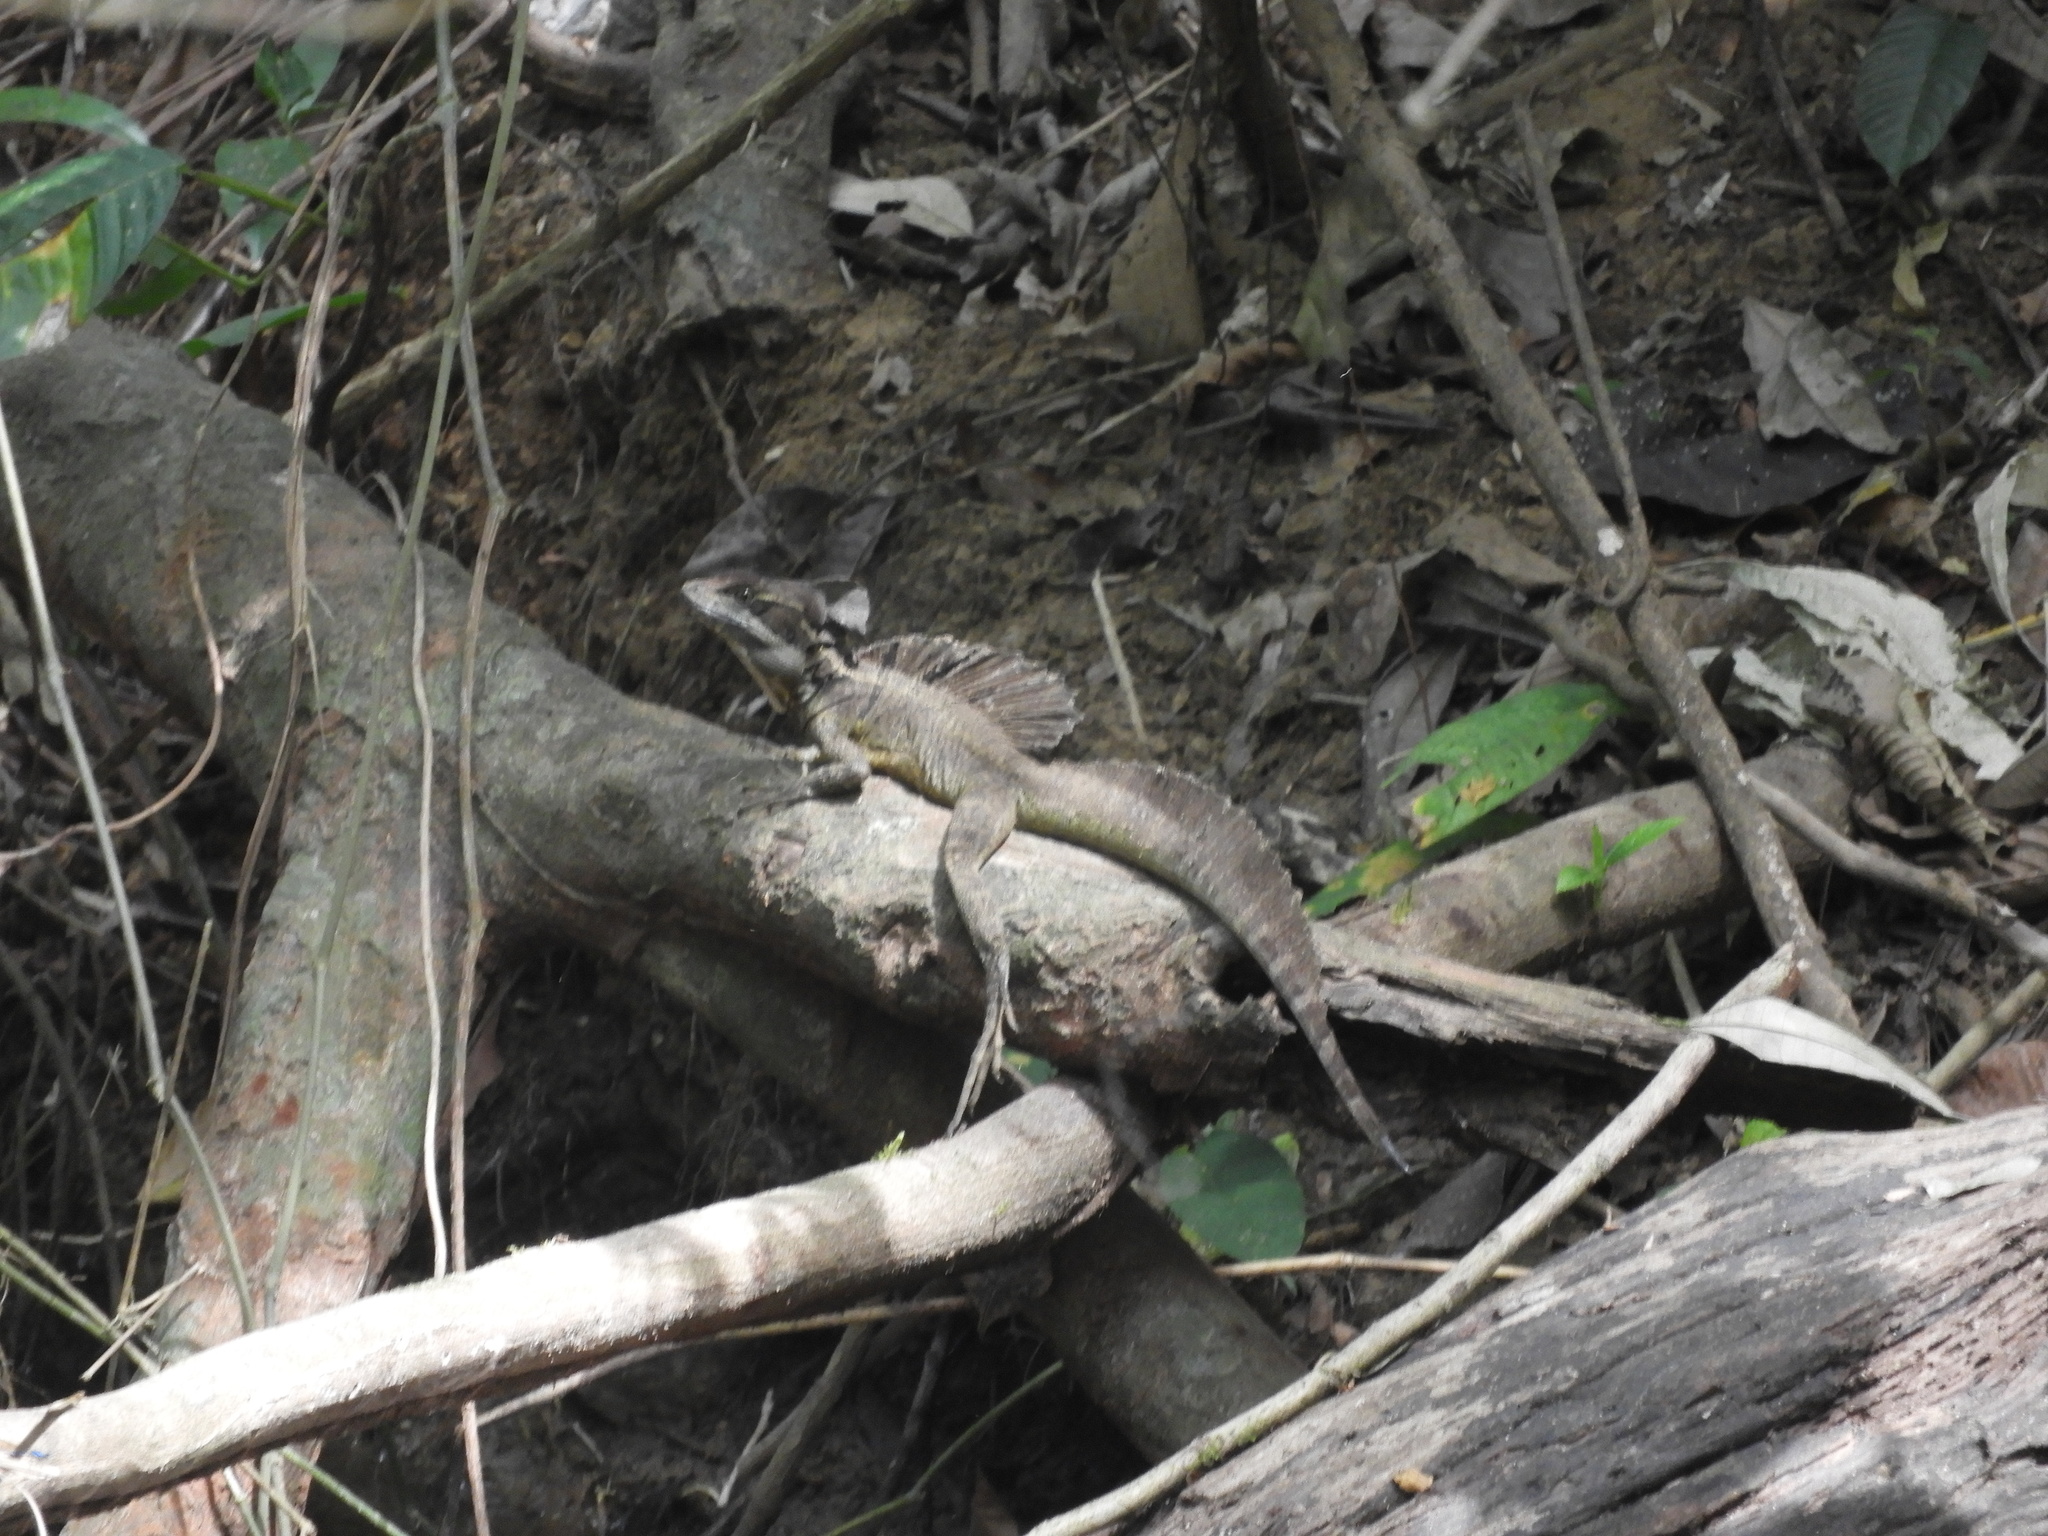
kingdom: Animalia
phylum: Chordata
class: Squamata
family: Corytophanidae
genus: Basiliscus
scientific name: Basiliscus basiliscus
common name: Common basilisk
